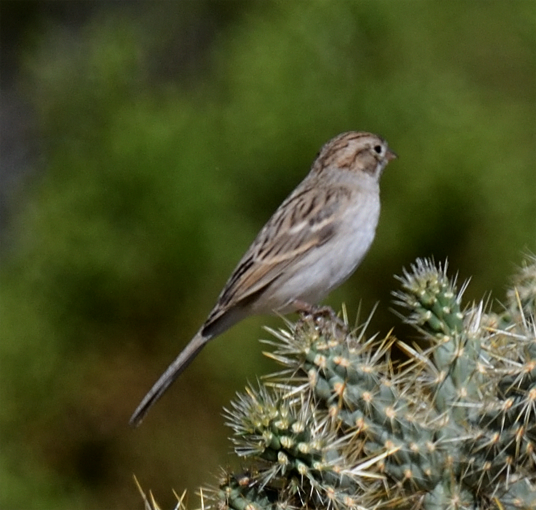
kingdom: Animalia
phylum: Chordata
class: Aves
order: Passeriformes
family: Passerellidae
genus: Spizella
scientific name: Spizella breweri
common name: Brewer's sparrow
